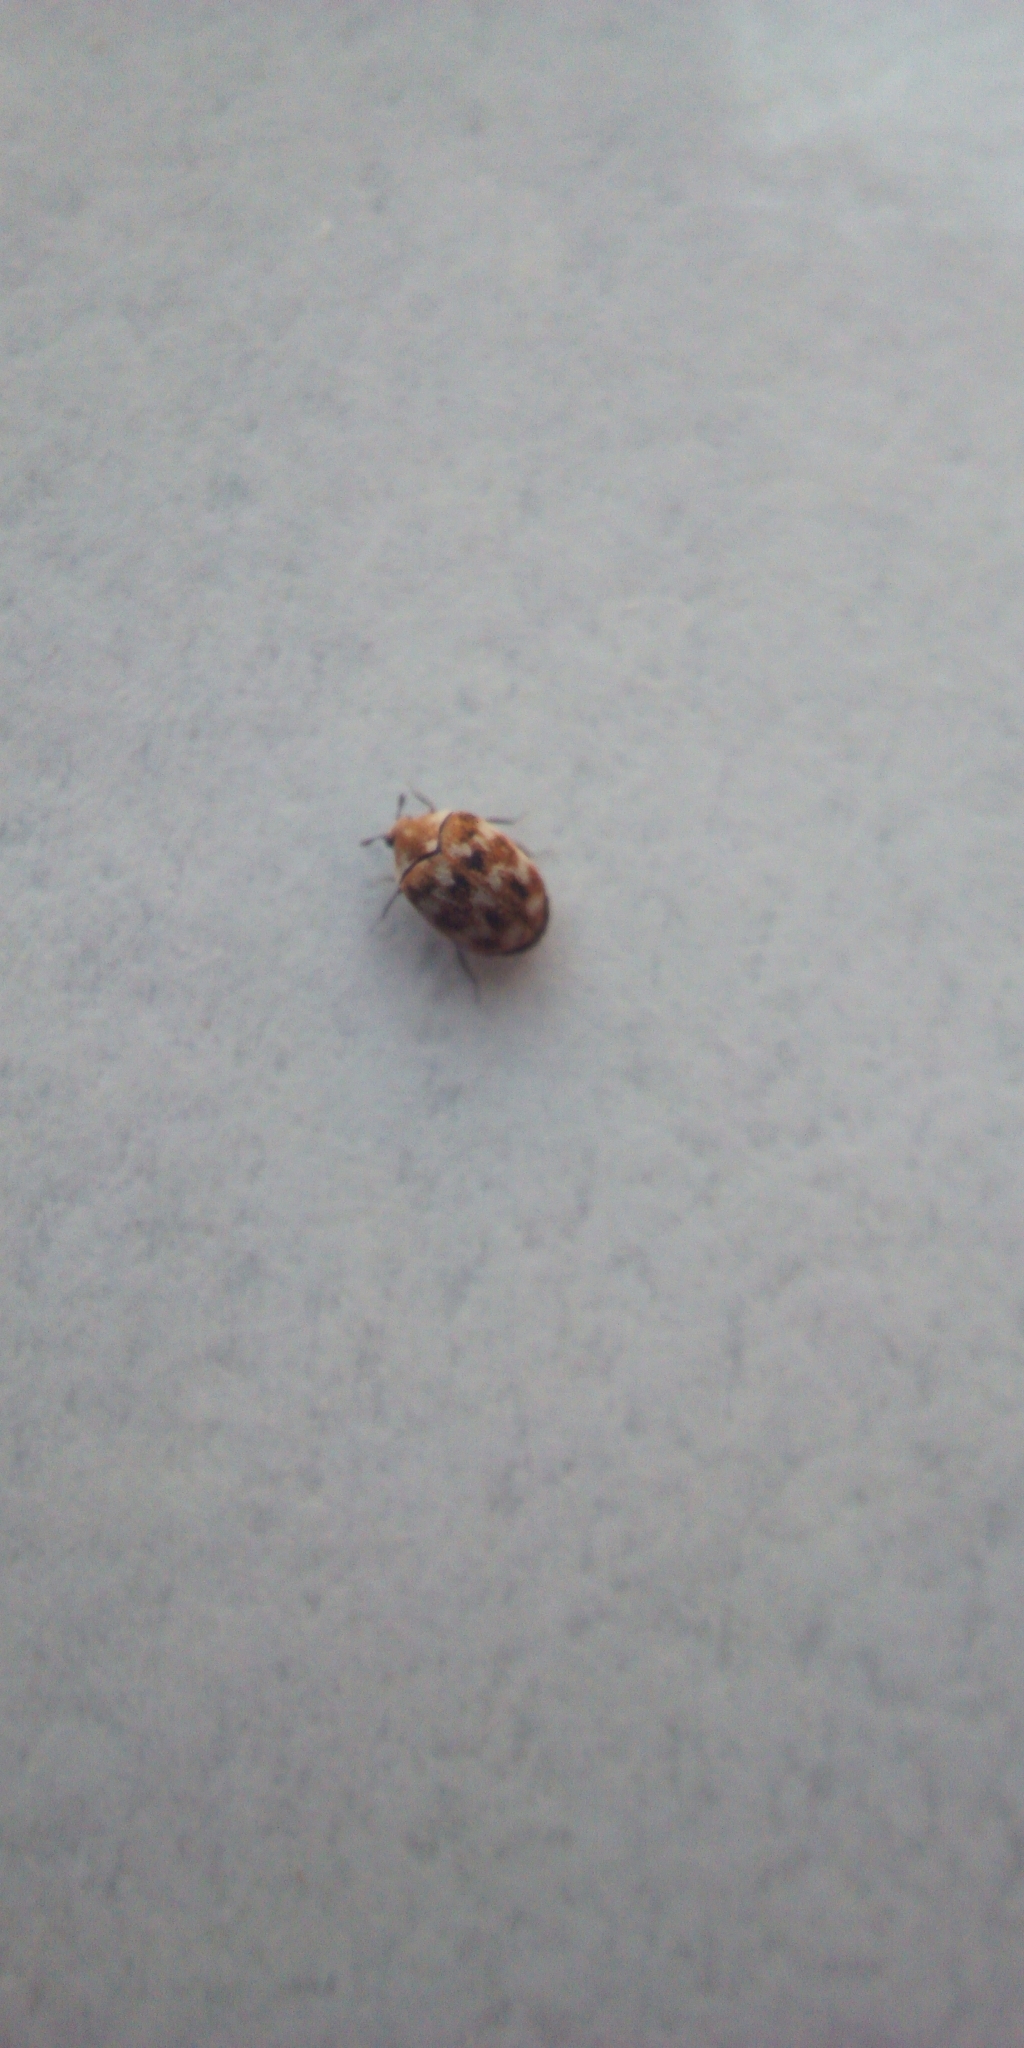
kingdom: Animalia
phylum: Arthropoda
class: Insecta
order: Coleoptera
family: Dermestidae
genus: Anthrenus
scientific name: Anthrenus verbasci
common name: Varied carpet beetle
